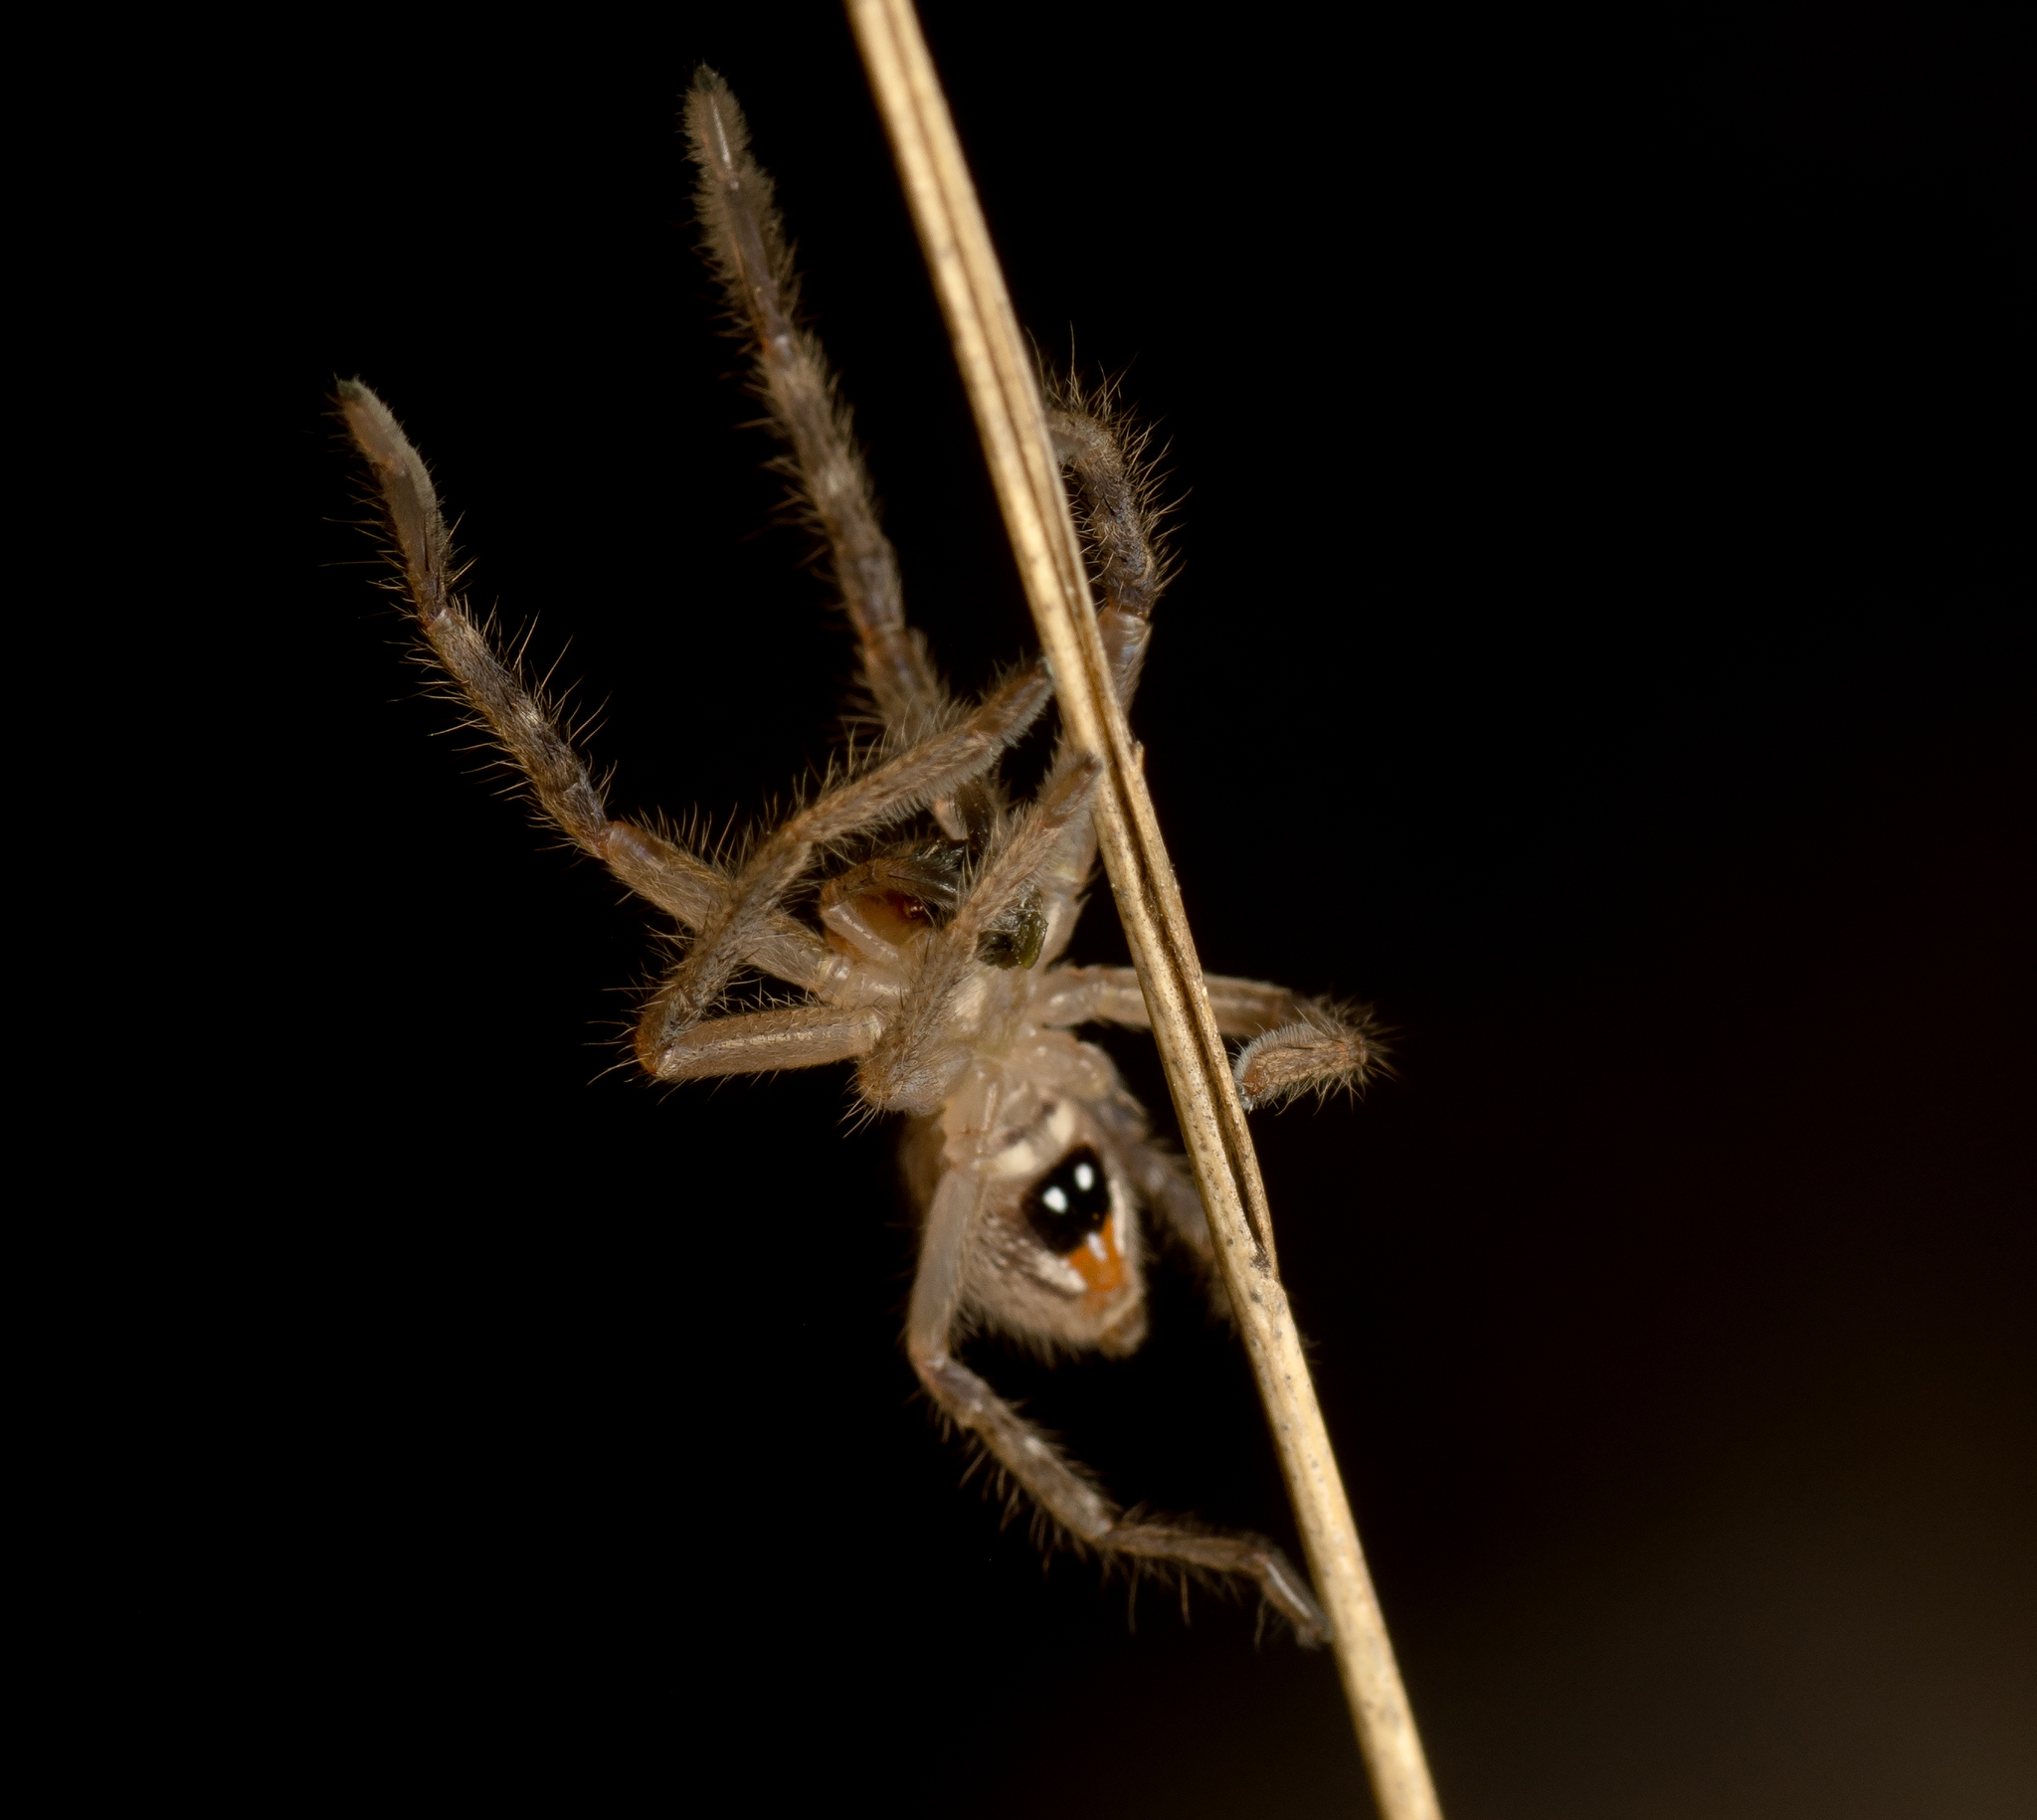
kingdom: Animalia
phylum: Arthropoda
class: Arachnida
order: Araneae
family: Sparassidae
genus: Neosparassus
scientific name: Neosparassus calligaster
